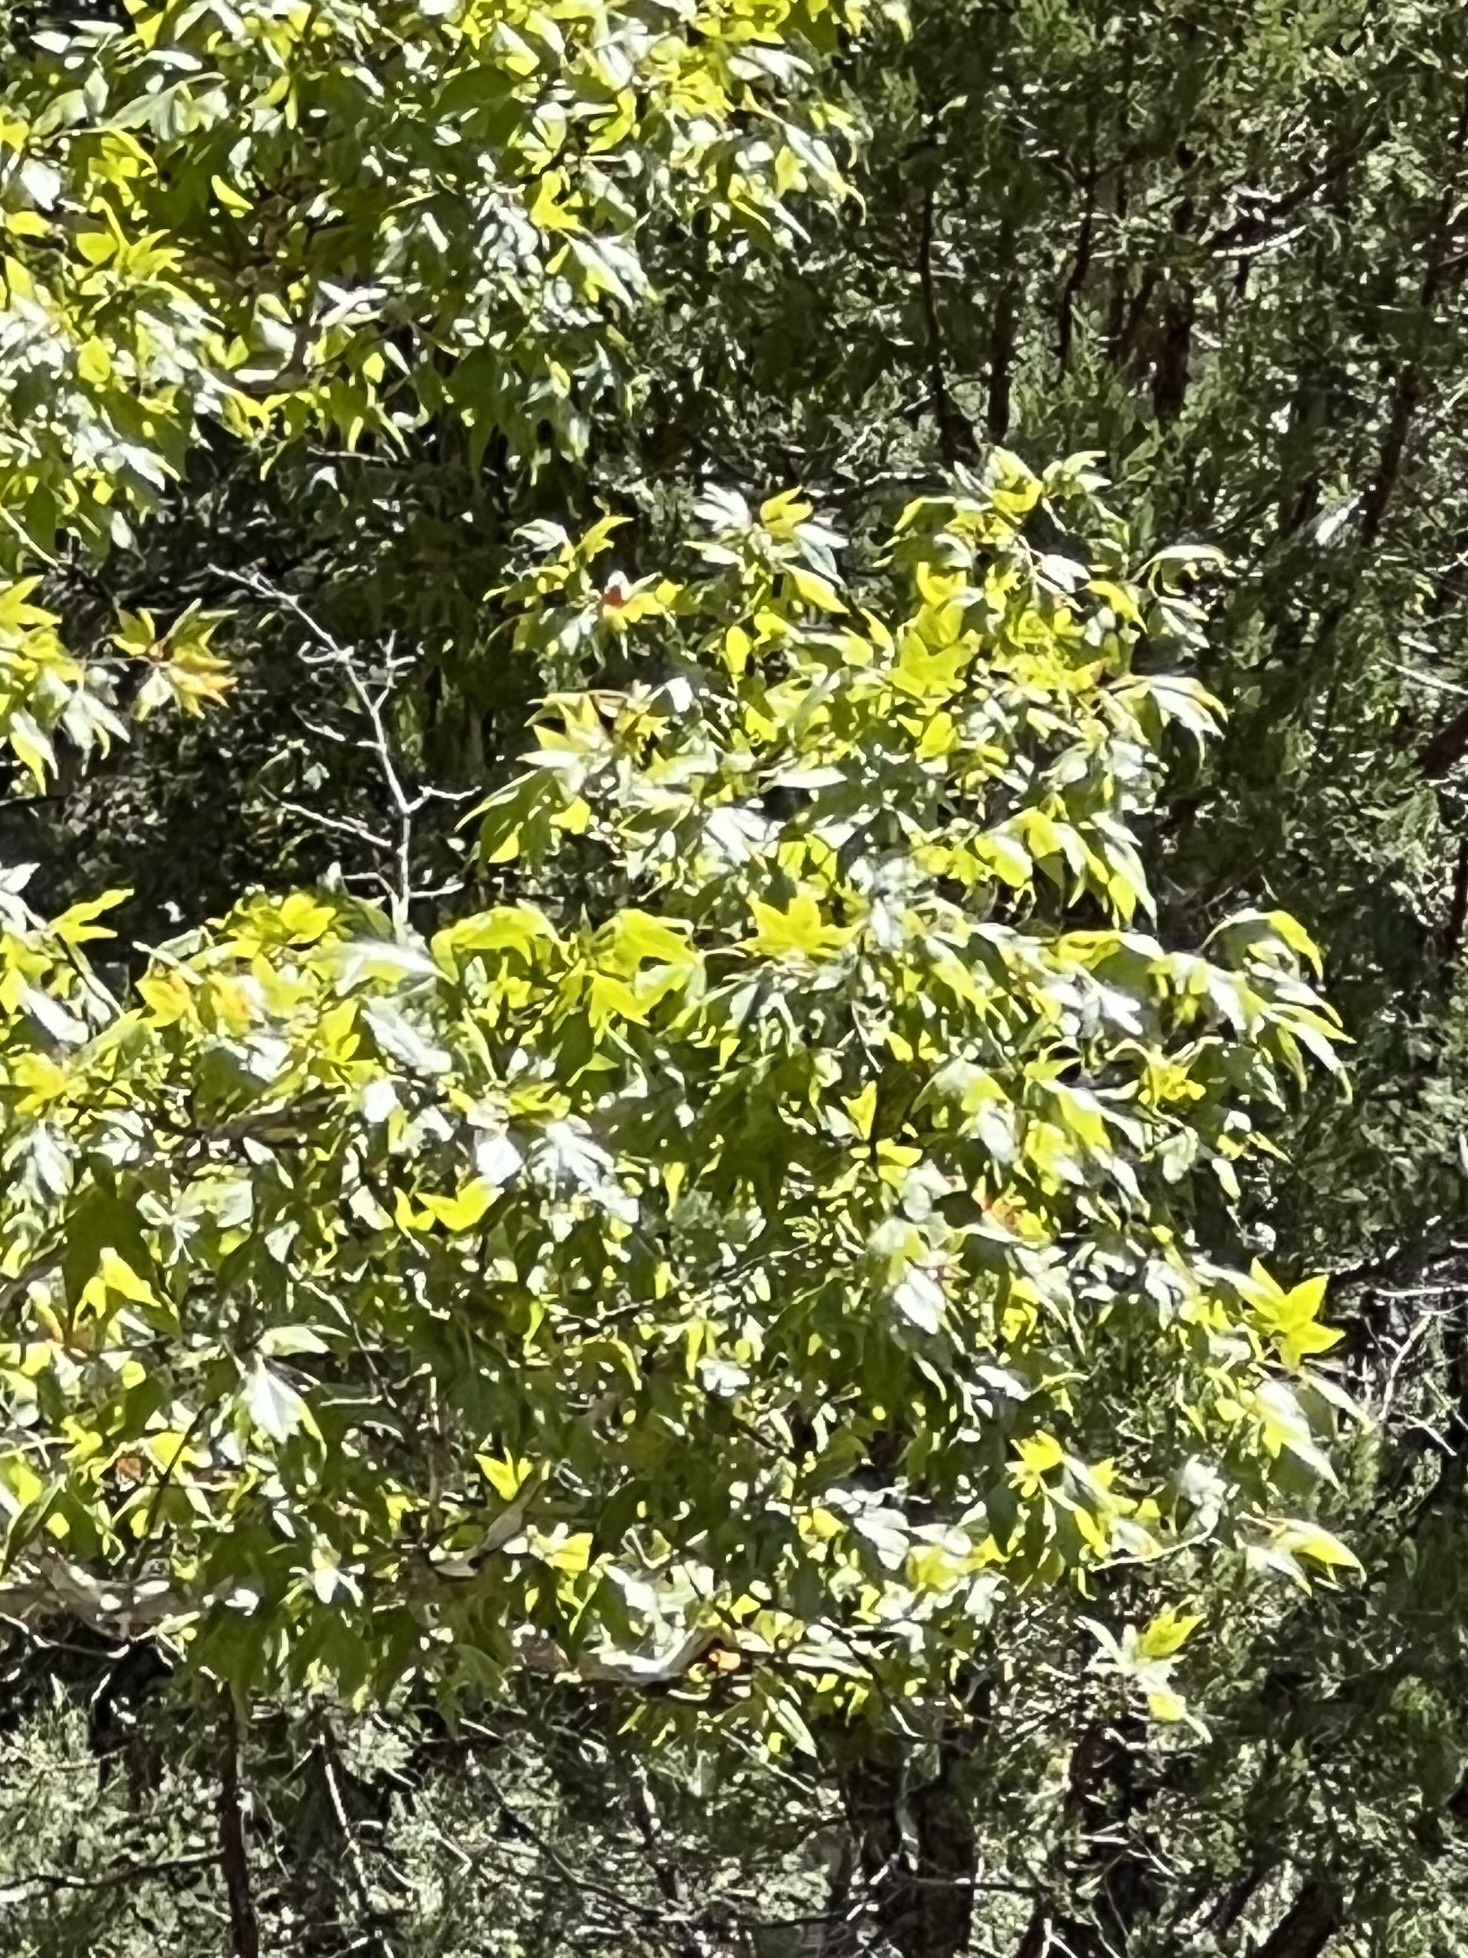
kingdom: Plantae
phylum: Tracheophyta
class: Magnoliopsida
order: Proteales
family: Platanaceae
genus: Platanus
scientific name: Platanus wrightii
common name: Arizona sycamore
